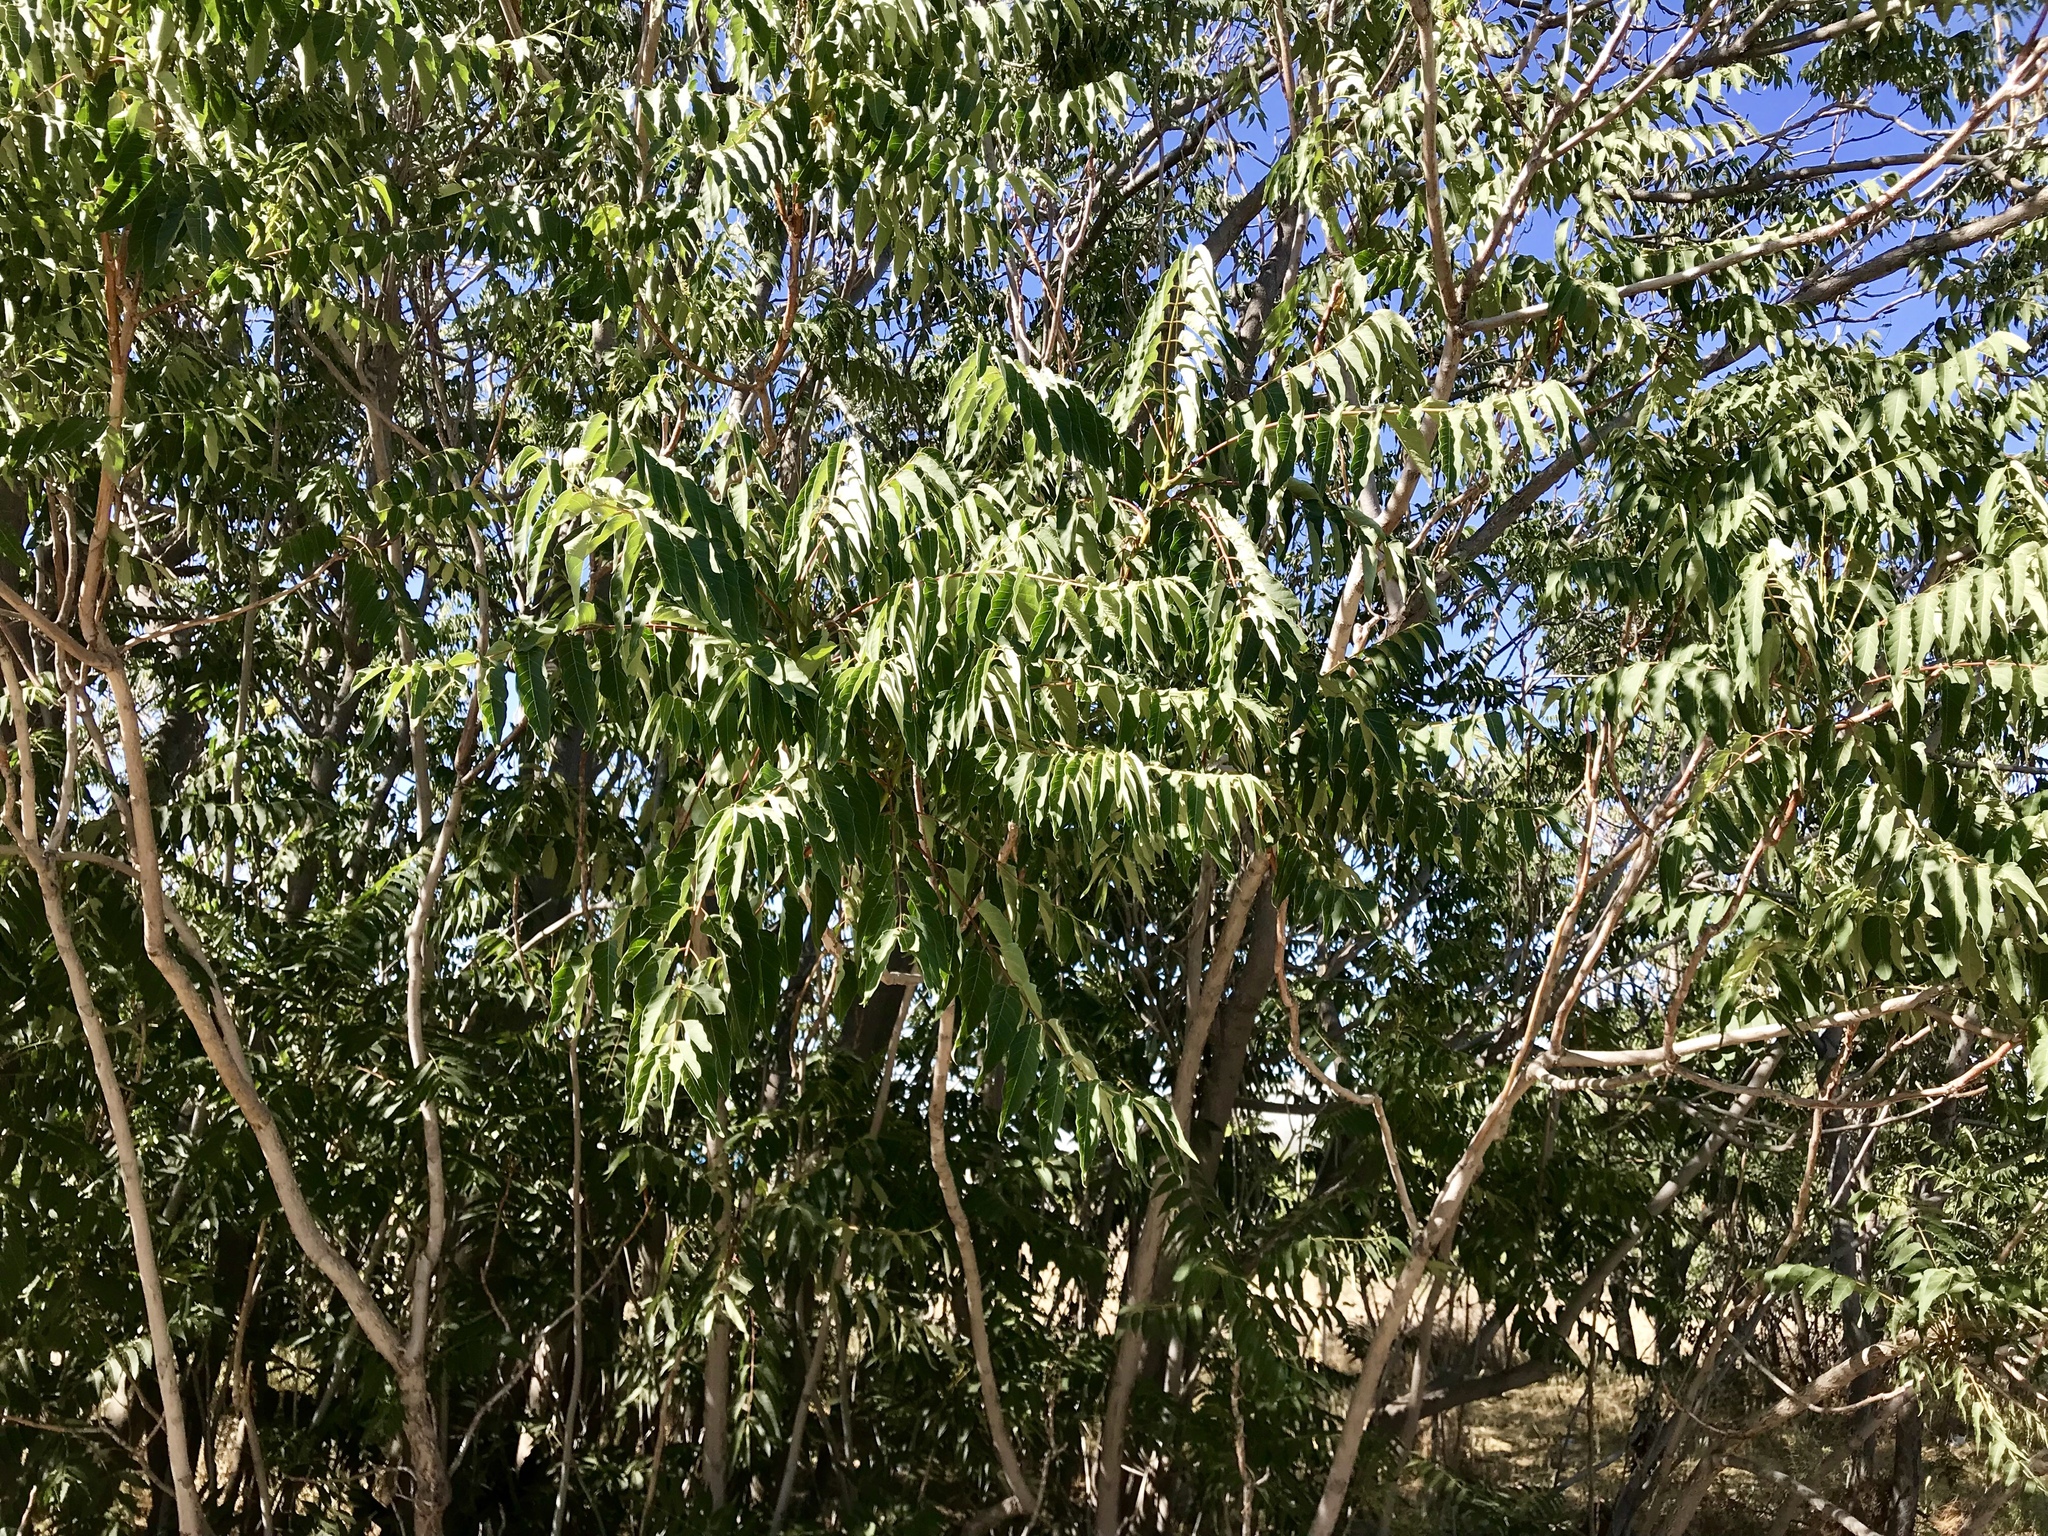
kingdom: Plantae
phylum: Tracheophyta
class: Magnoliopsida
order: Sapindales
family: Simaroubaceae
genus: Ailanthus
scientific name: Ailanthus altissima
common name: Tree-of-heaven
